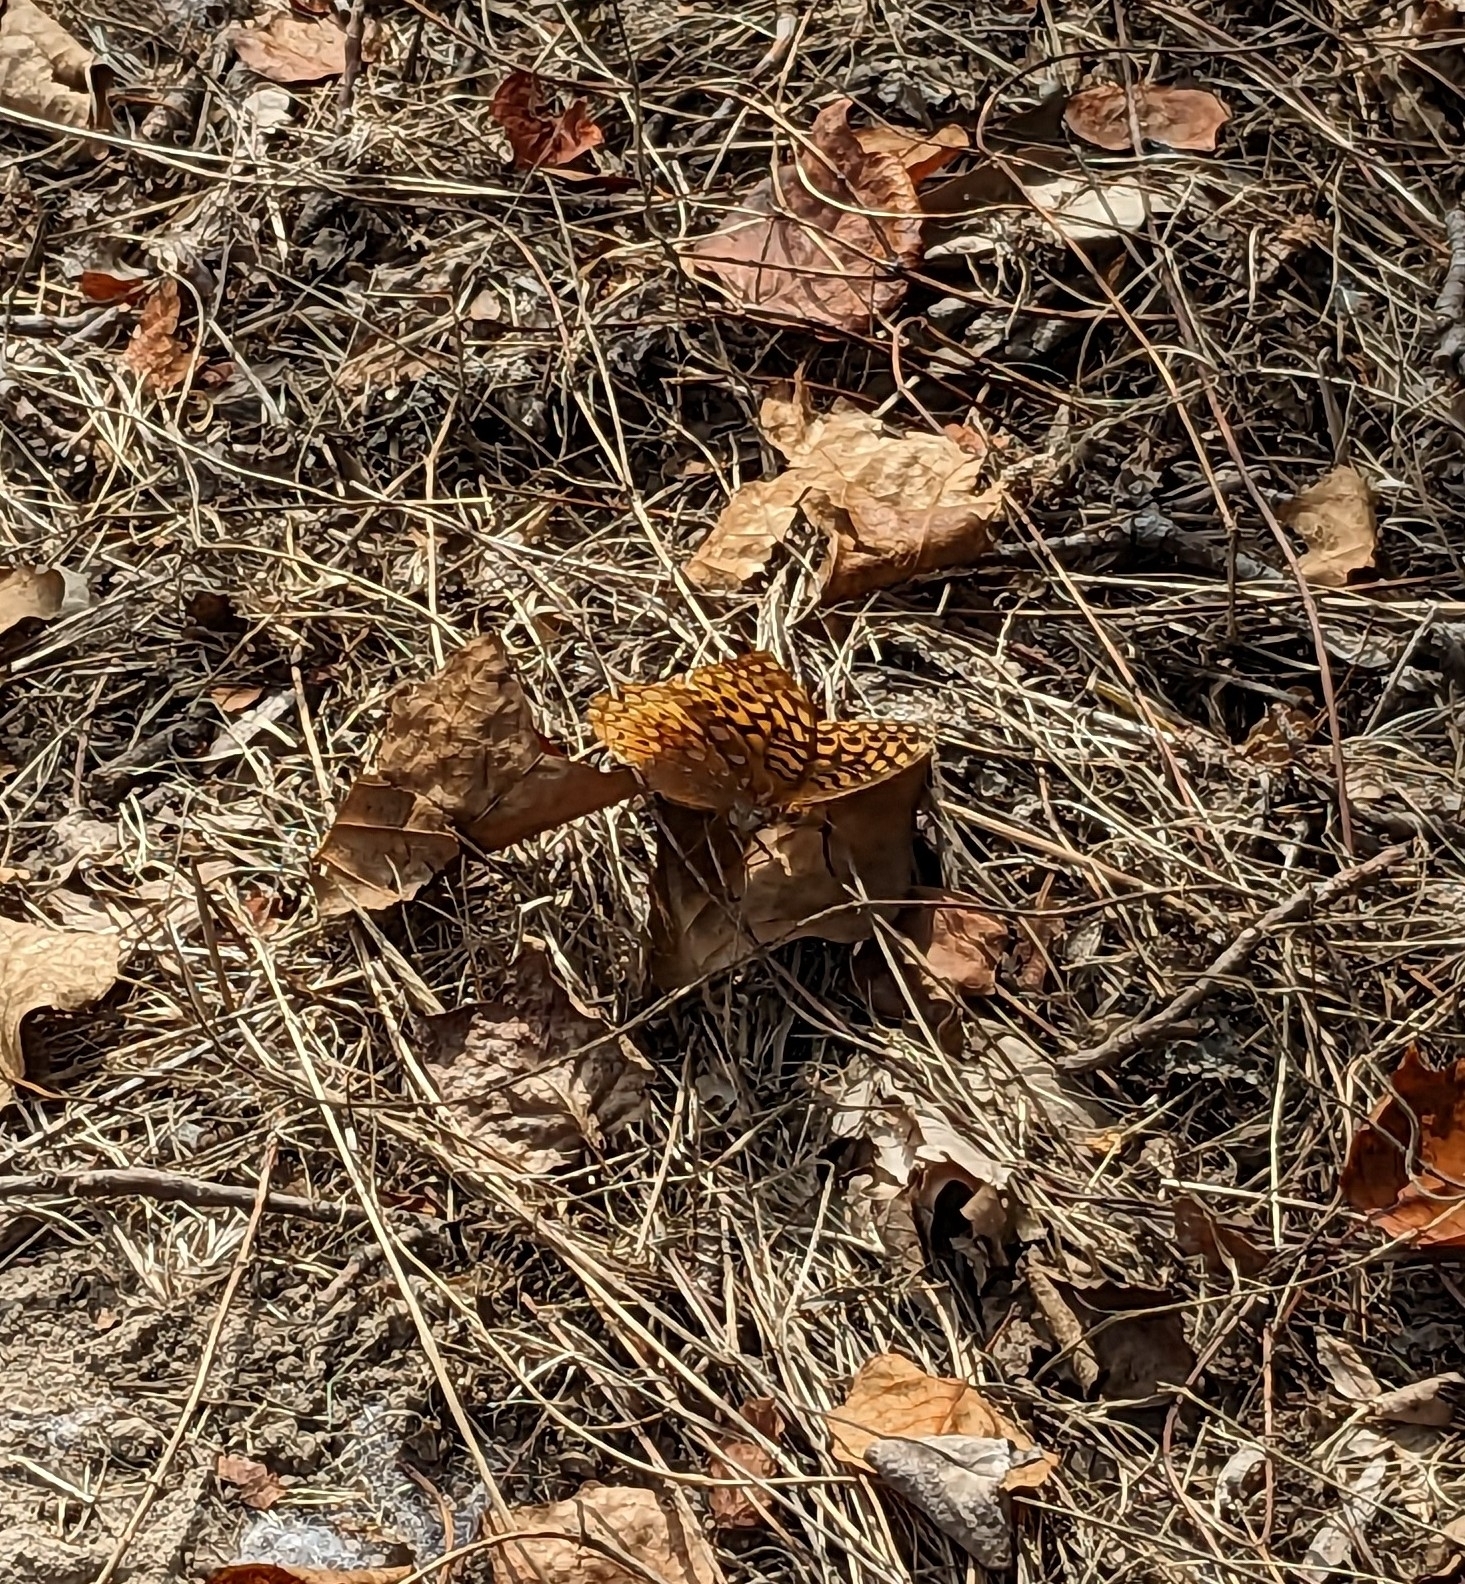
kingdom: Animalia
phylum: Arthropoda
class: Insecta
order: Lepidoptera
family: Nymphalidae
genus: Speyeria
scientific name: Speyeria cybele
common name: Great spangled fritillary
